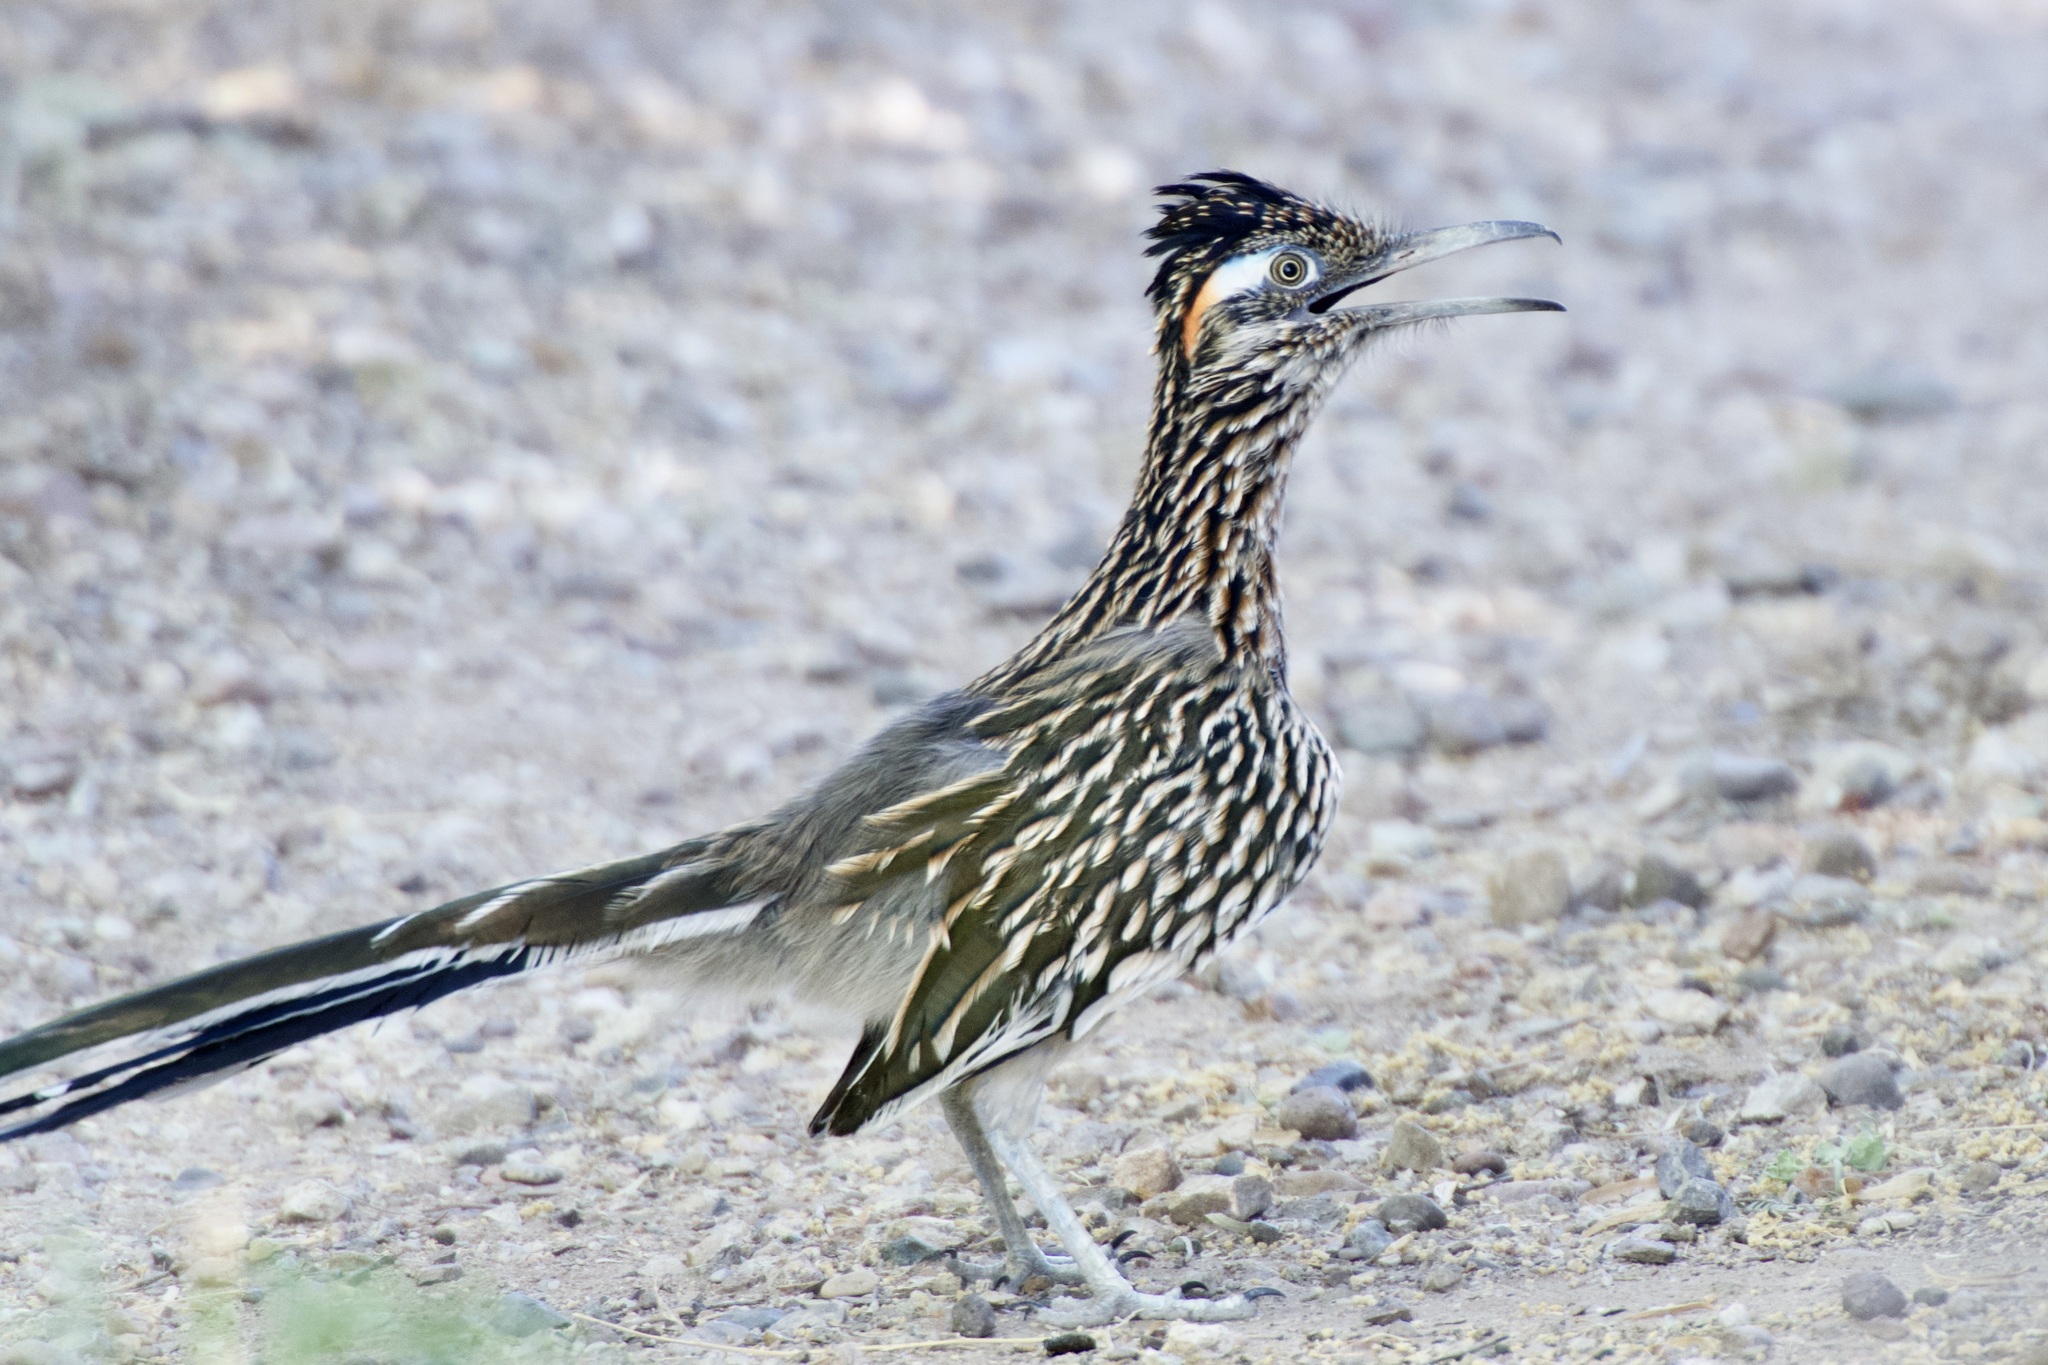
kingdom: Animalia
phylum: Chordata
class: Aves
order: Cuculiformes
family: Cuculidae
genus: Geococcyx
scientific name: Geococcyx californianus
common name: Greater roadrunner
